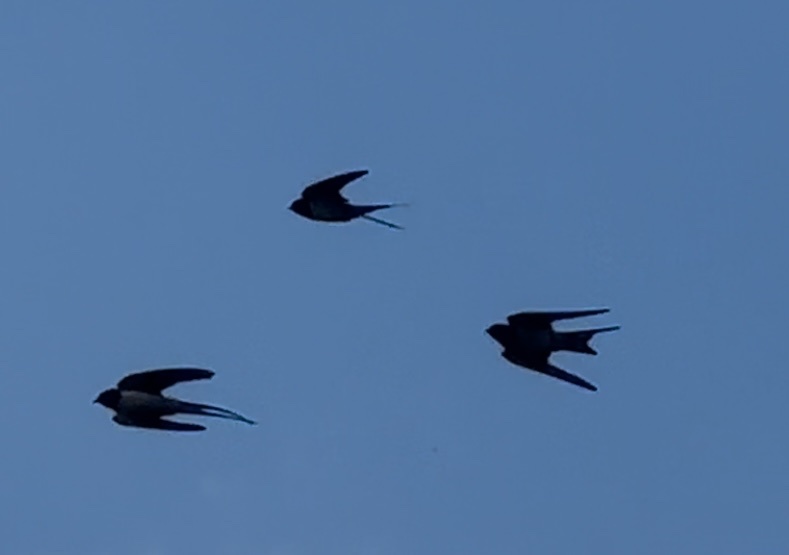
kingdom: Animalia
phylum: Chordata
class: Aves
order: Passeriformes
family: Hirundinidae
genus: Hirundo
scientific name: Hirundo rustica
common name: Barn swallow
